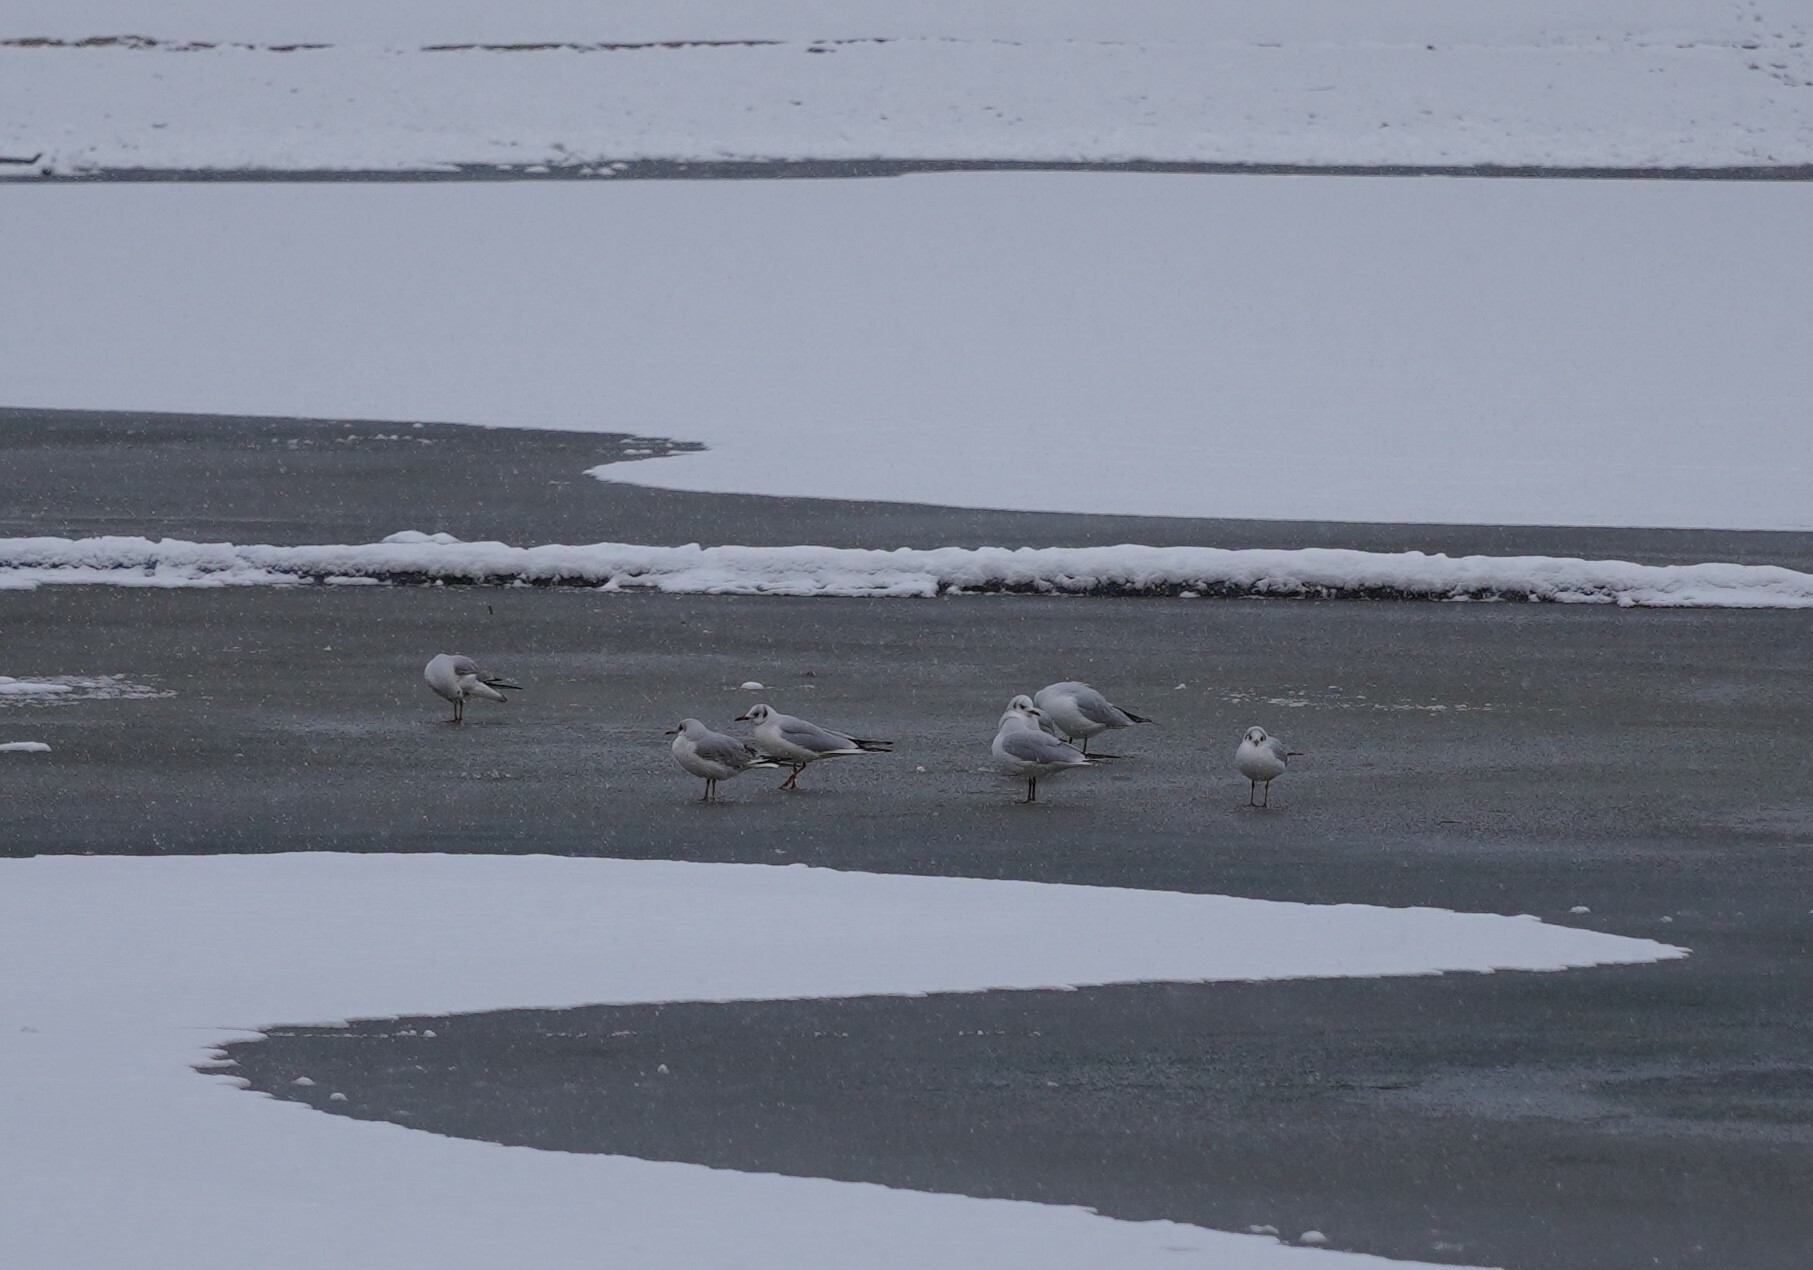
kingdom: Animalia
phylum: Chordata
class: Aves
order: Charadriiformes
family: Laridae
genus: Chroicocephalus
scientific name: Chroicocephalus ridibundus
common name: Black-headed gull
